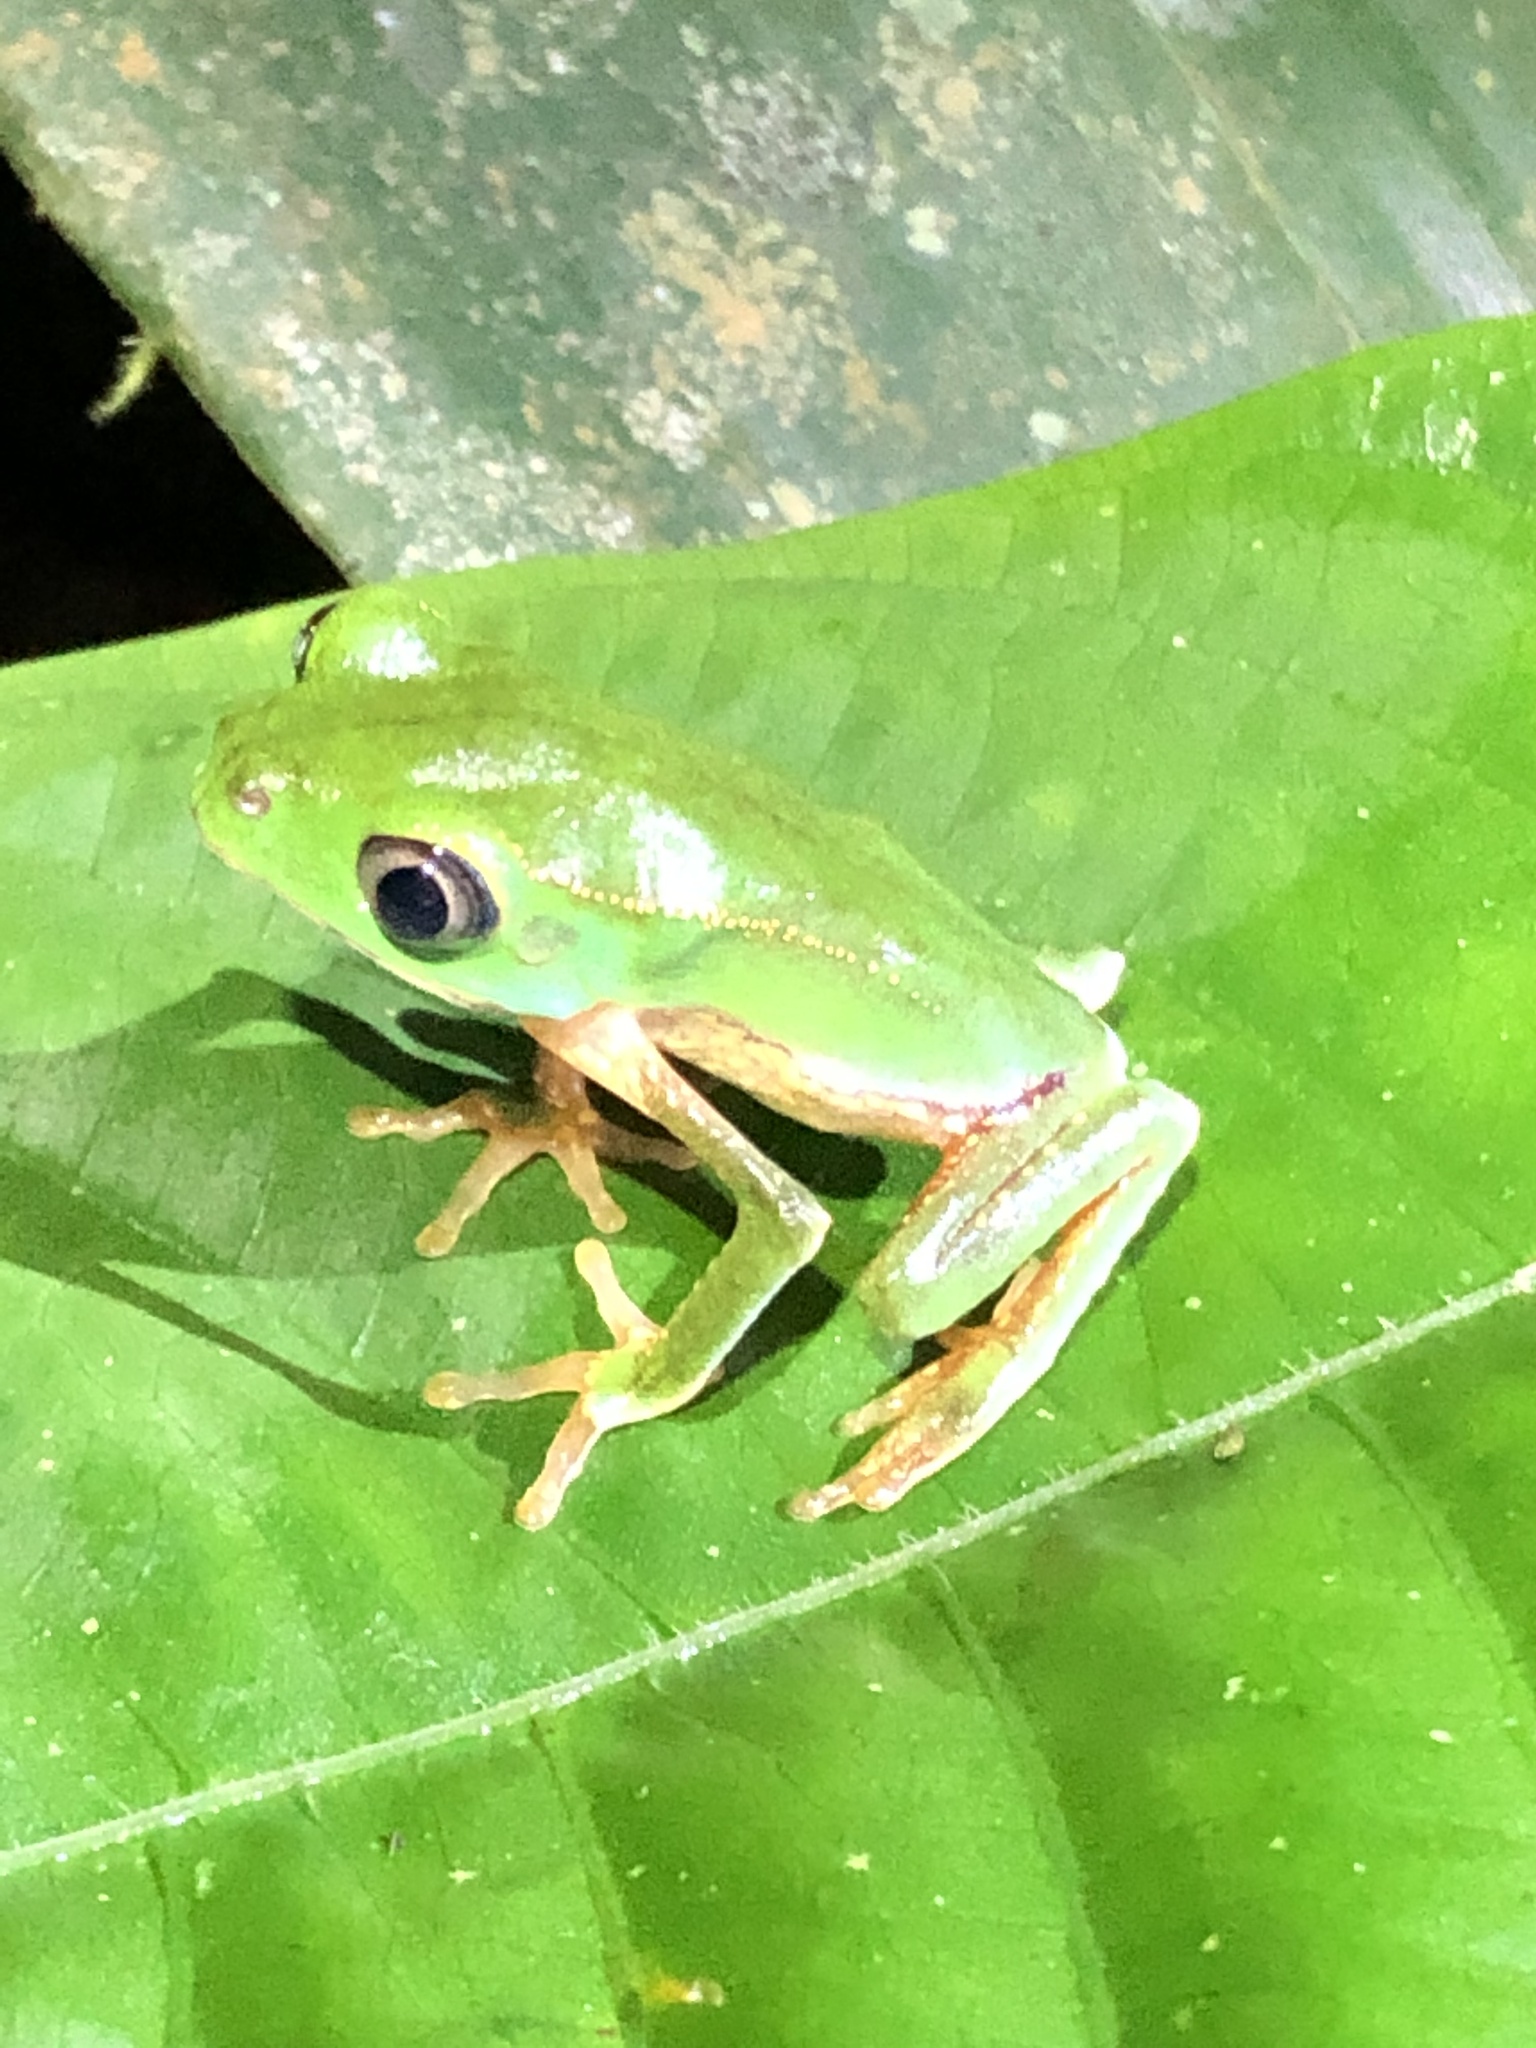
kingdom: Animalia
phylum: Chordata
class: Amphibia
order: Anura
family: Phyllomedusidae
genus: Phyllomedusa
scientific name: Phyllomedusa vaillantii
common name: White-lined leaf frog
